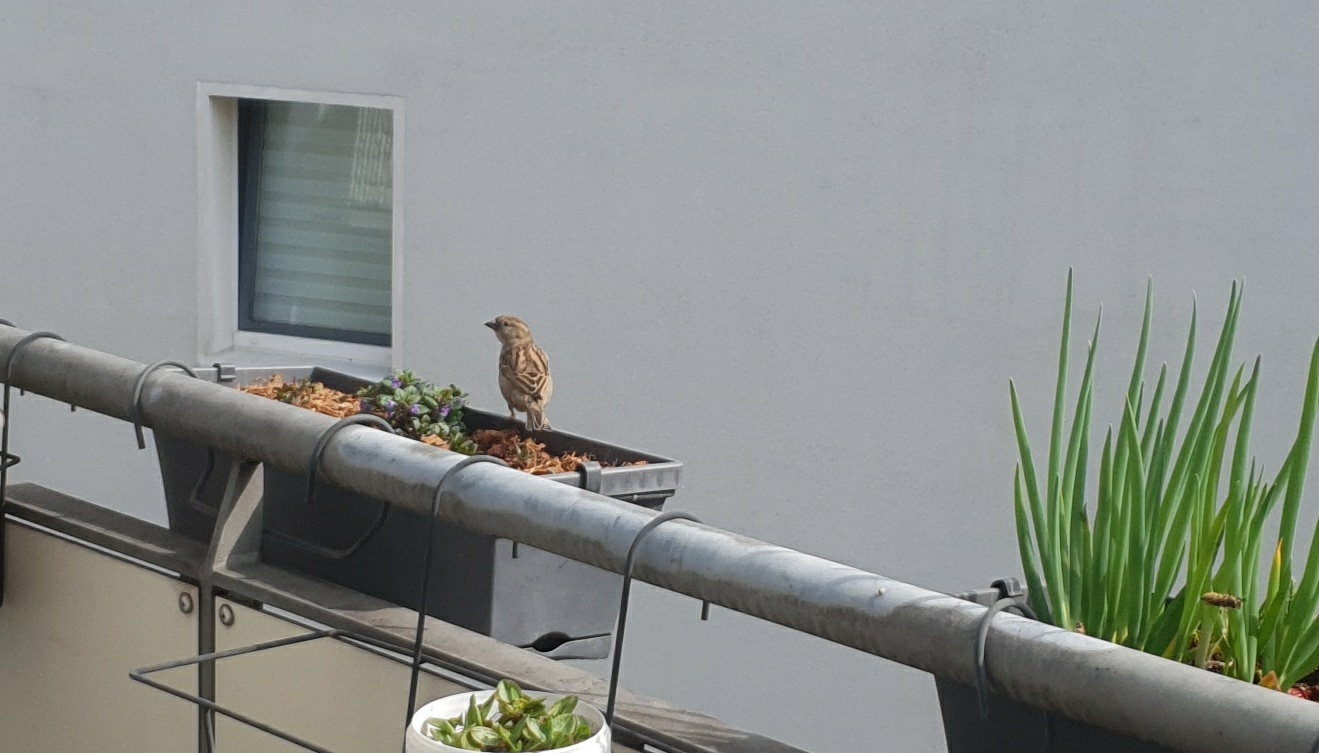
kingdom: Animalia
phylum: Chordata
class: Aves
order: Passeriformes
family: Passeridae
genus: Passer
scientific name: Passer domesticus
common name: House sparrow
